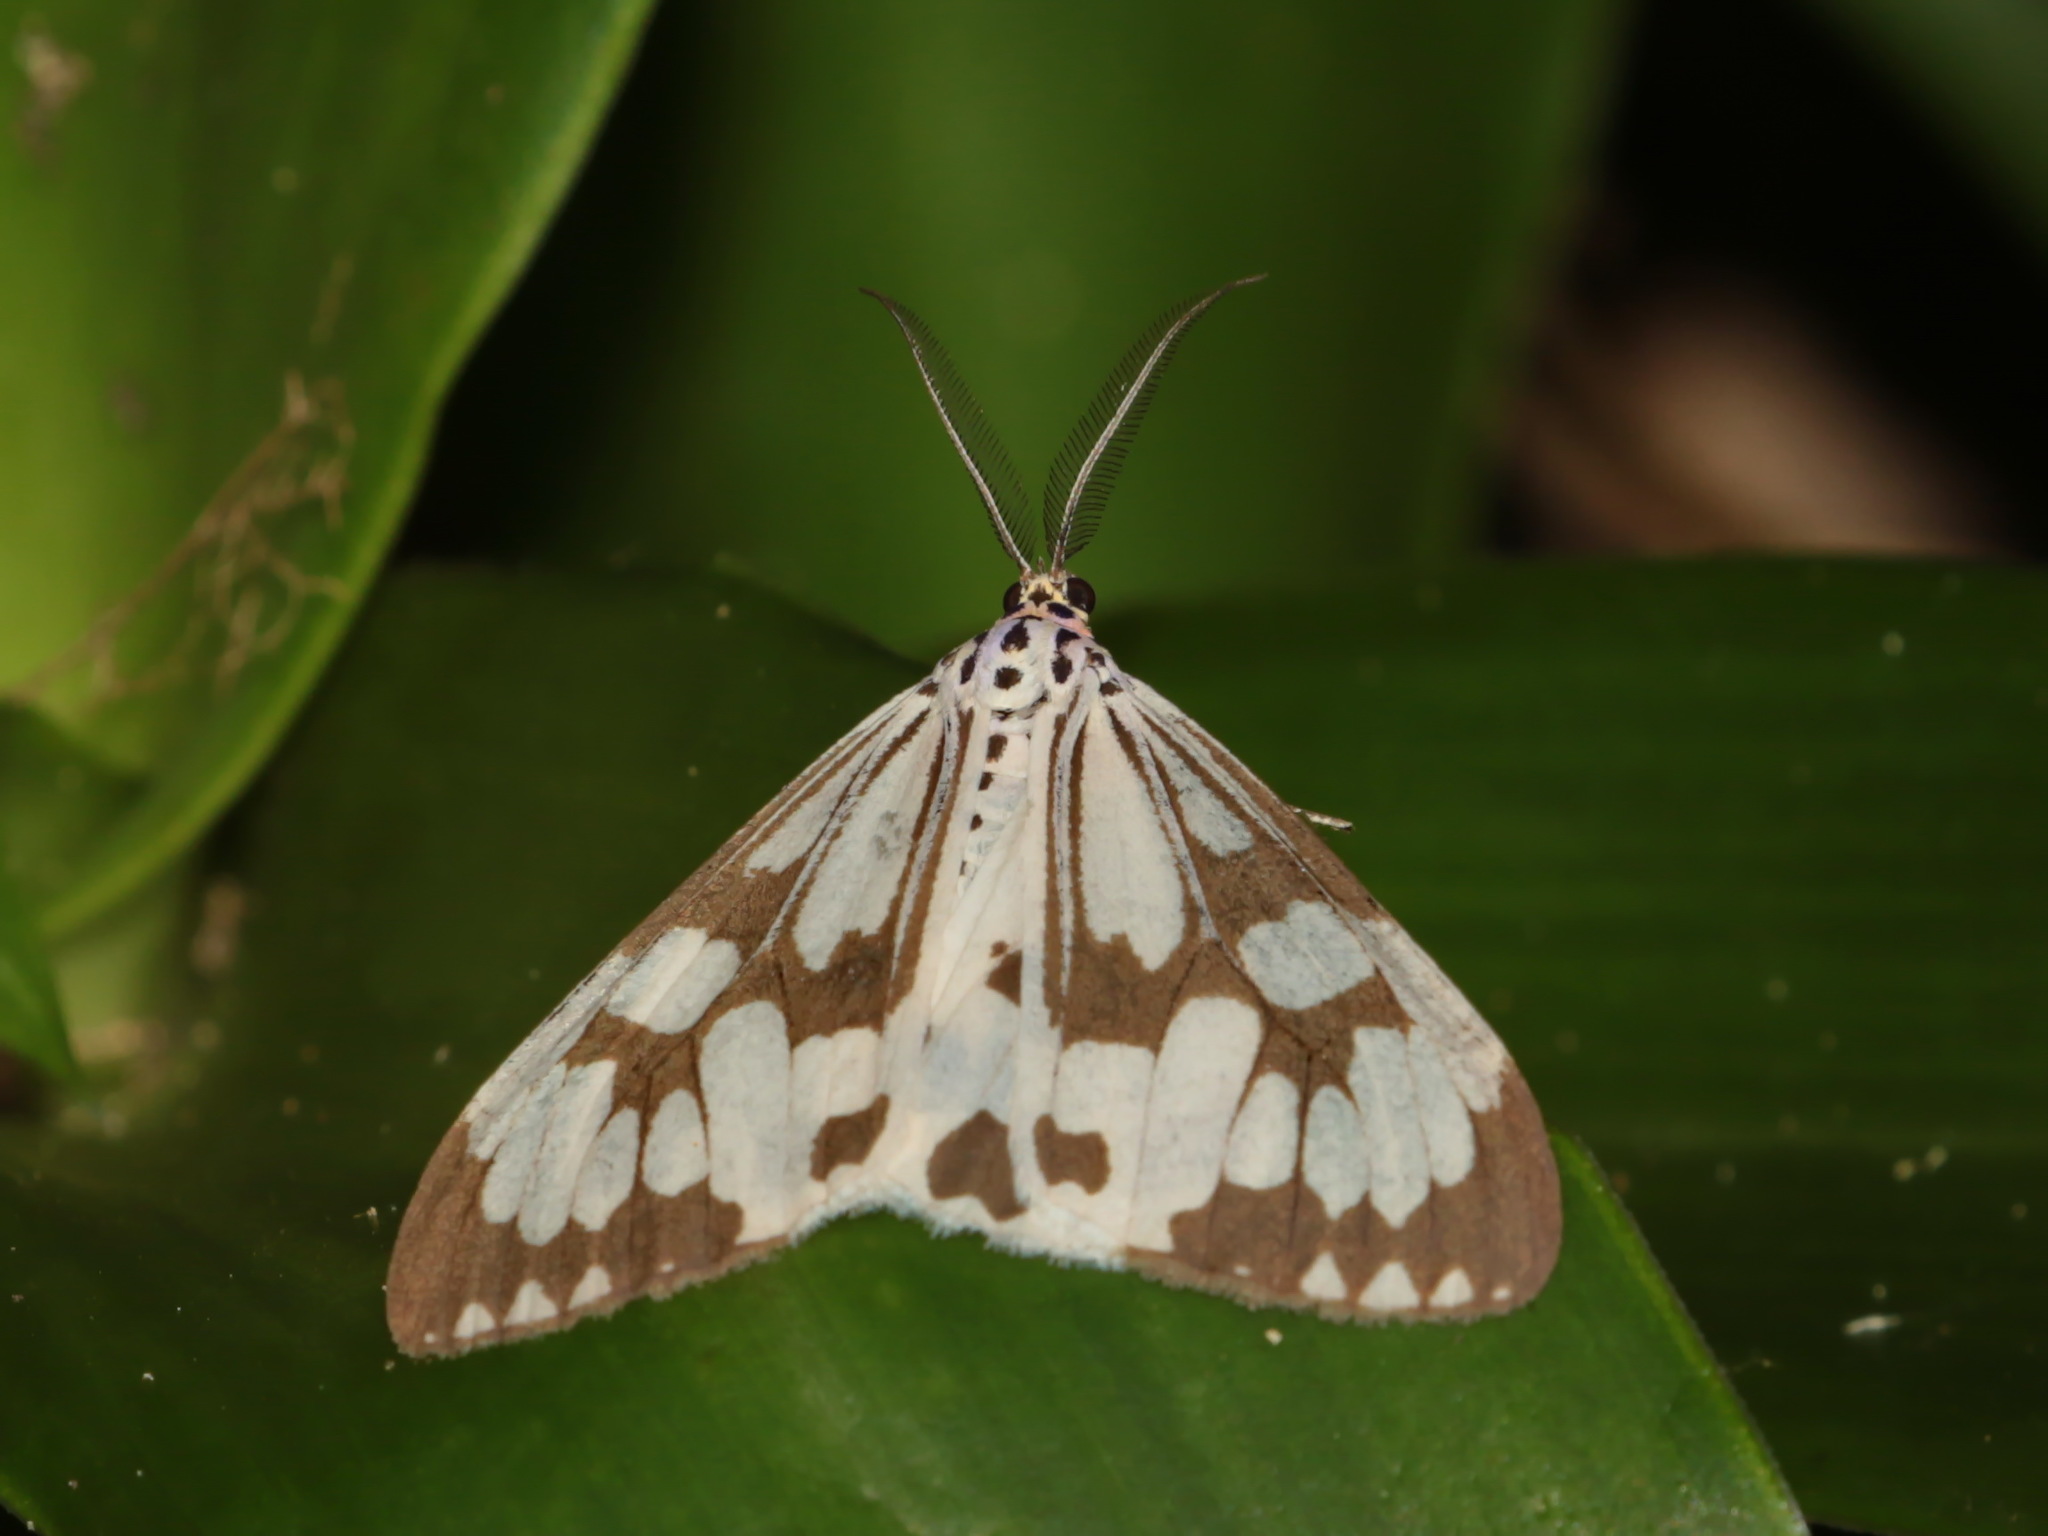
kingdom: Animalia
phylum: Arthropoda
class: Insecta
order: Lepidoptera
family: Erebidae
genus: Nyctemera
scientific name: Nyctemera adversata
